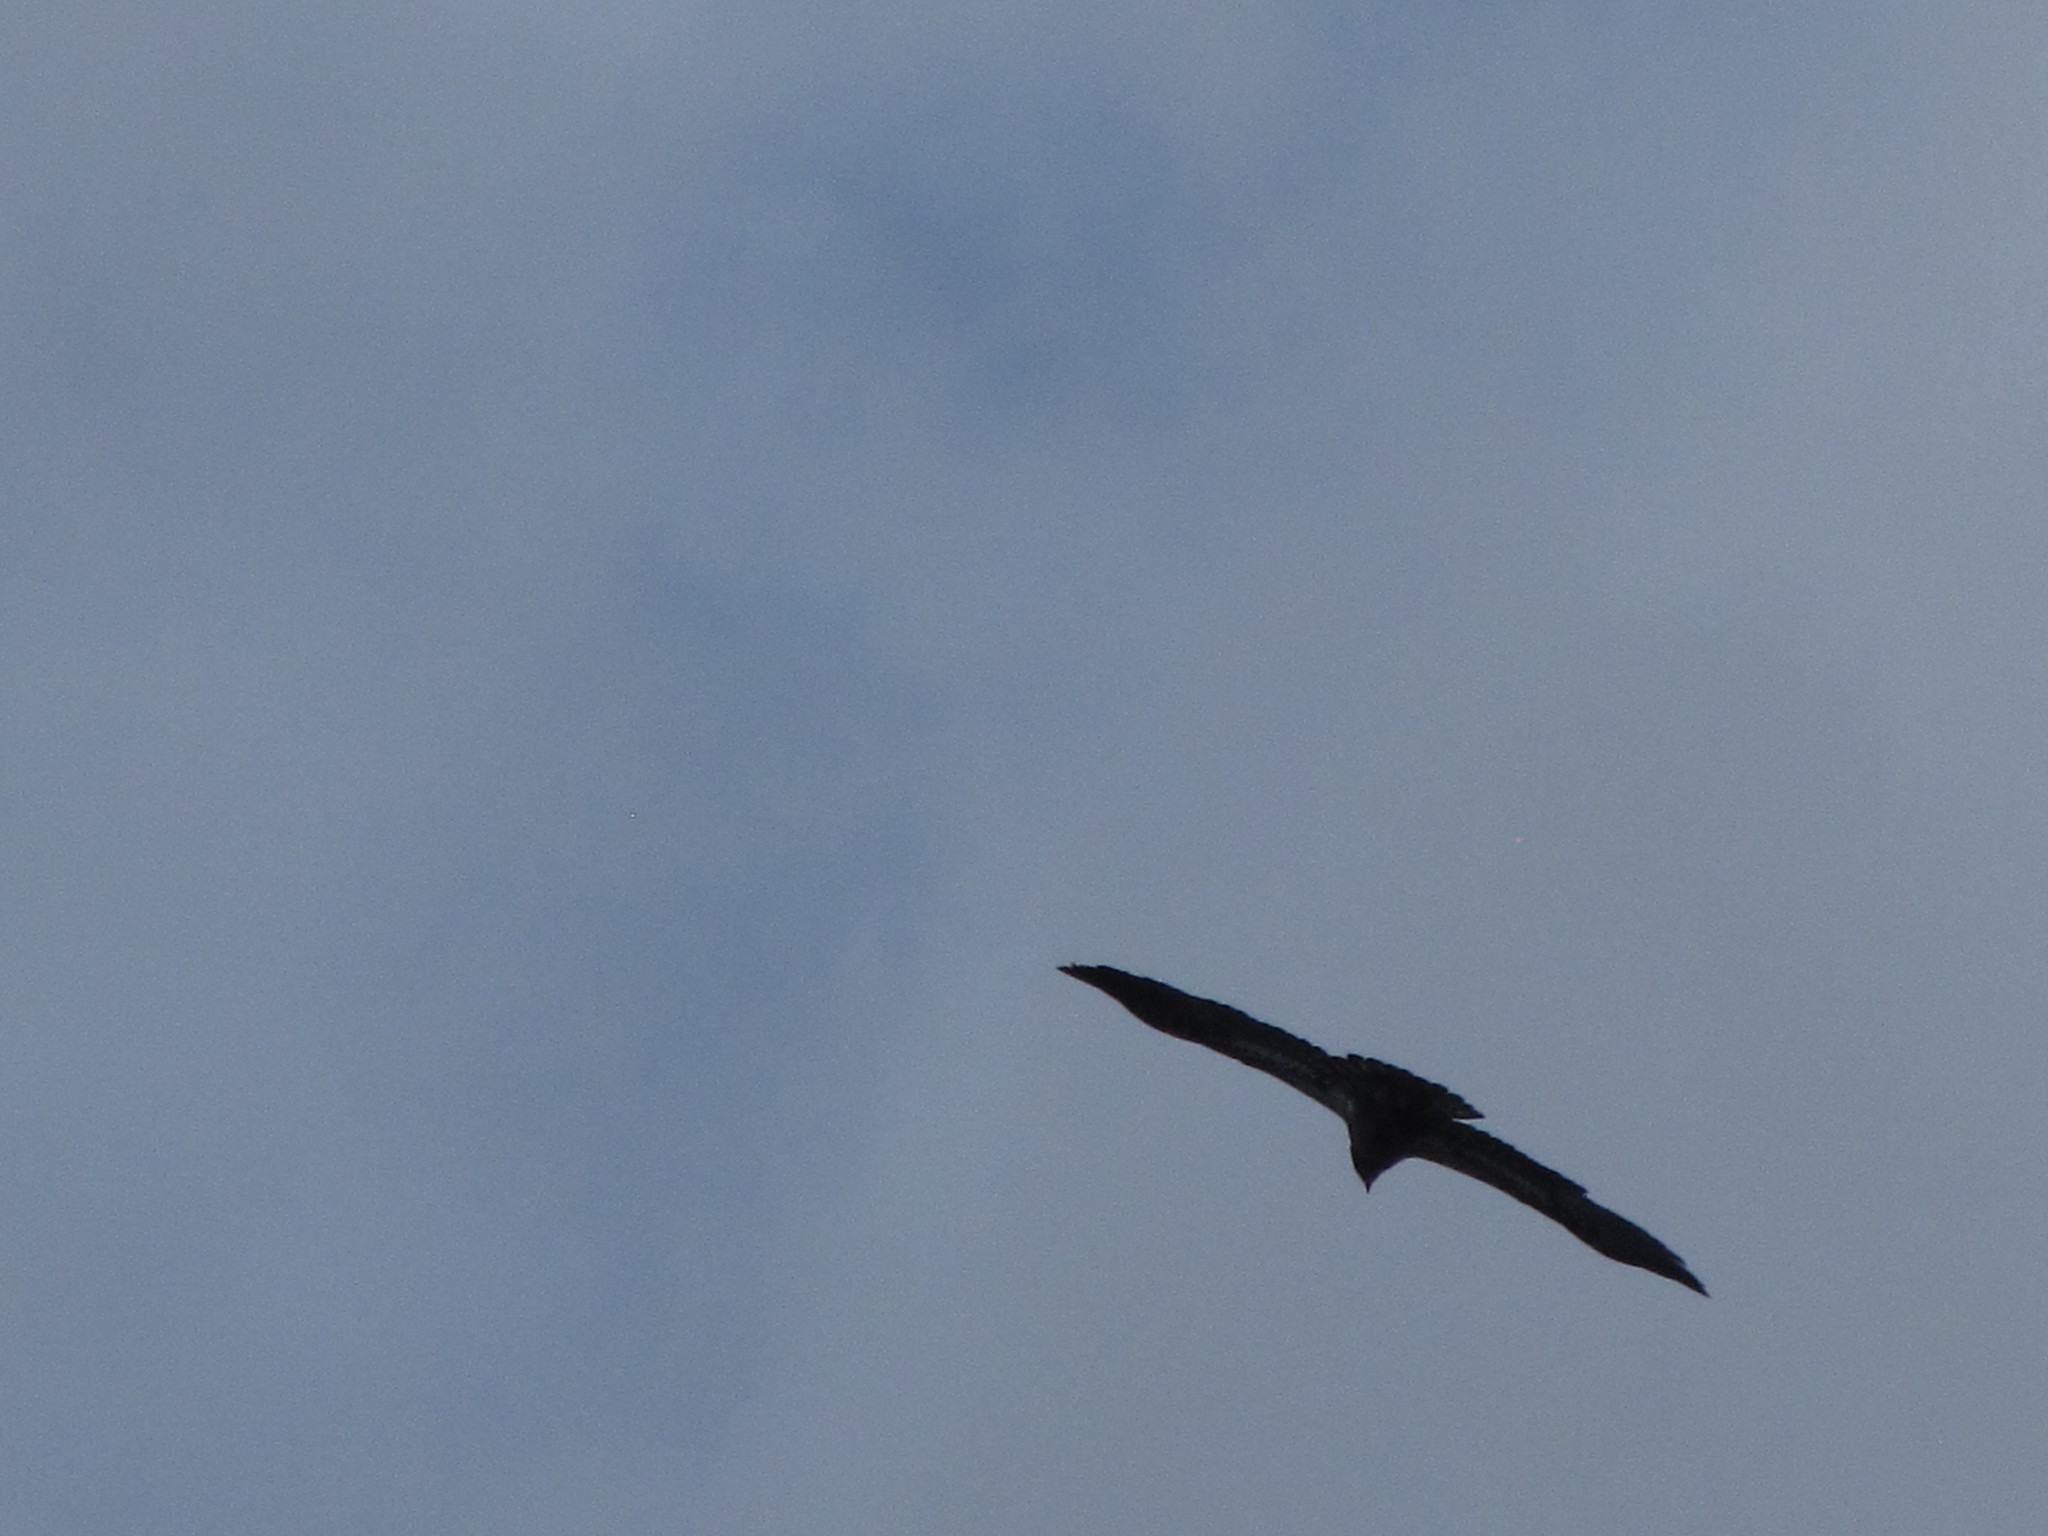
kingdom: Animalia
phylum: Chordata
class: Aves
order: Accipitriformes
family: Accipitridae
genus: Haliaeetus
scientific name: Haliaeetus leucocephalus
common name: Bald eagle
